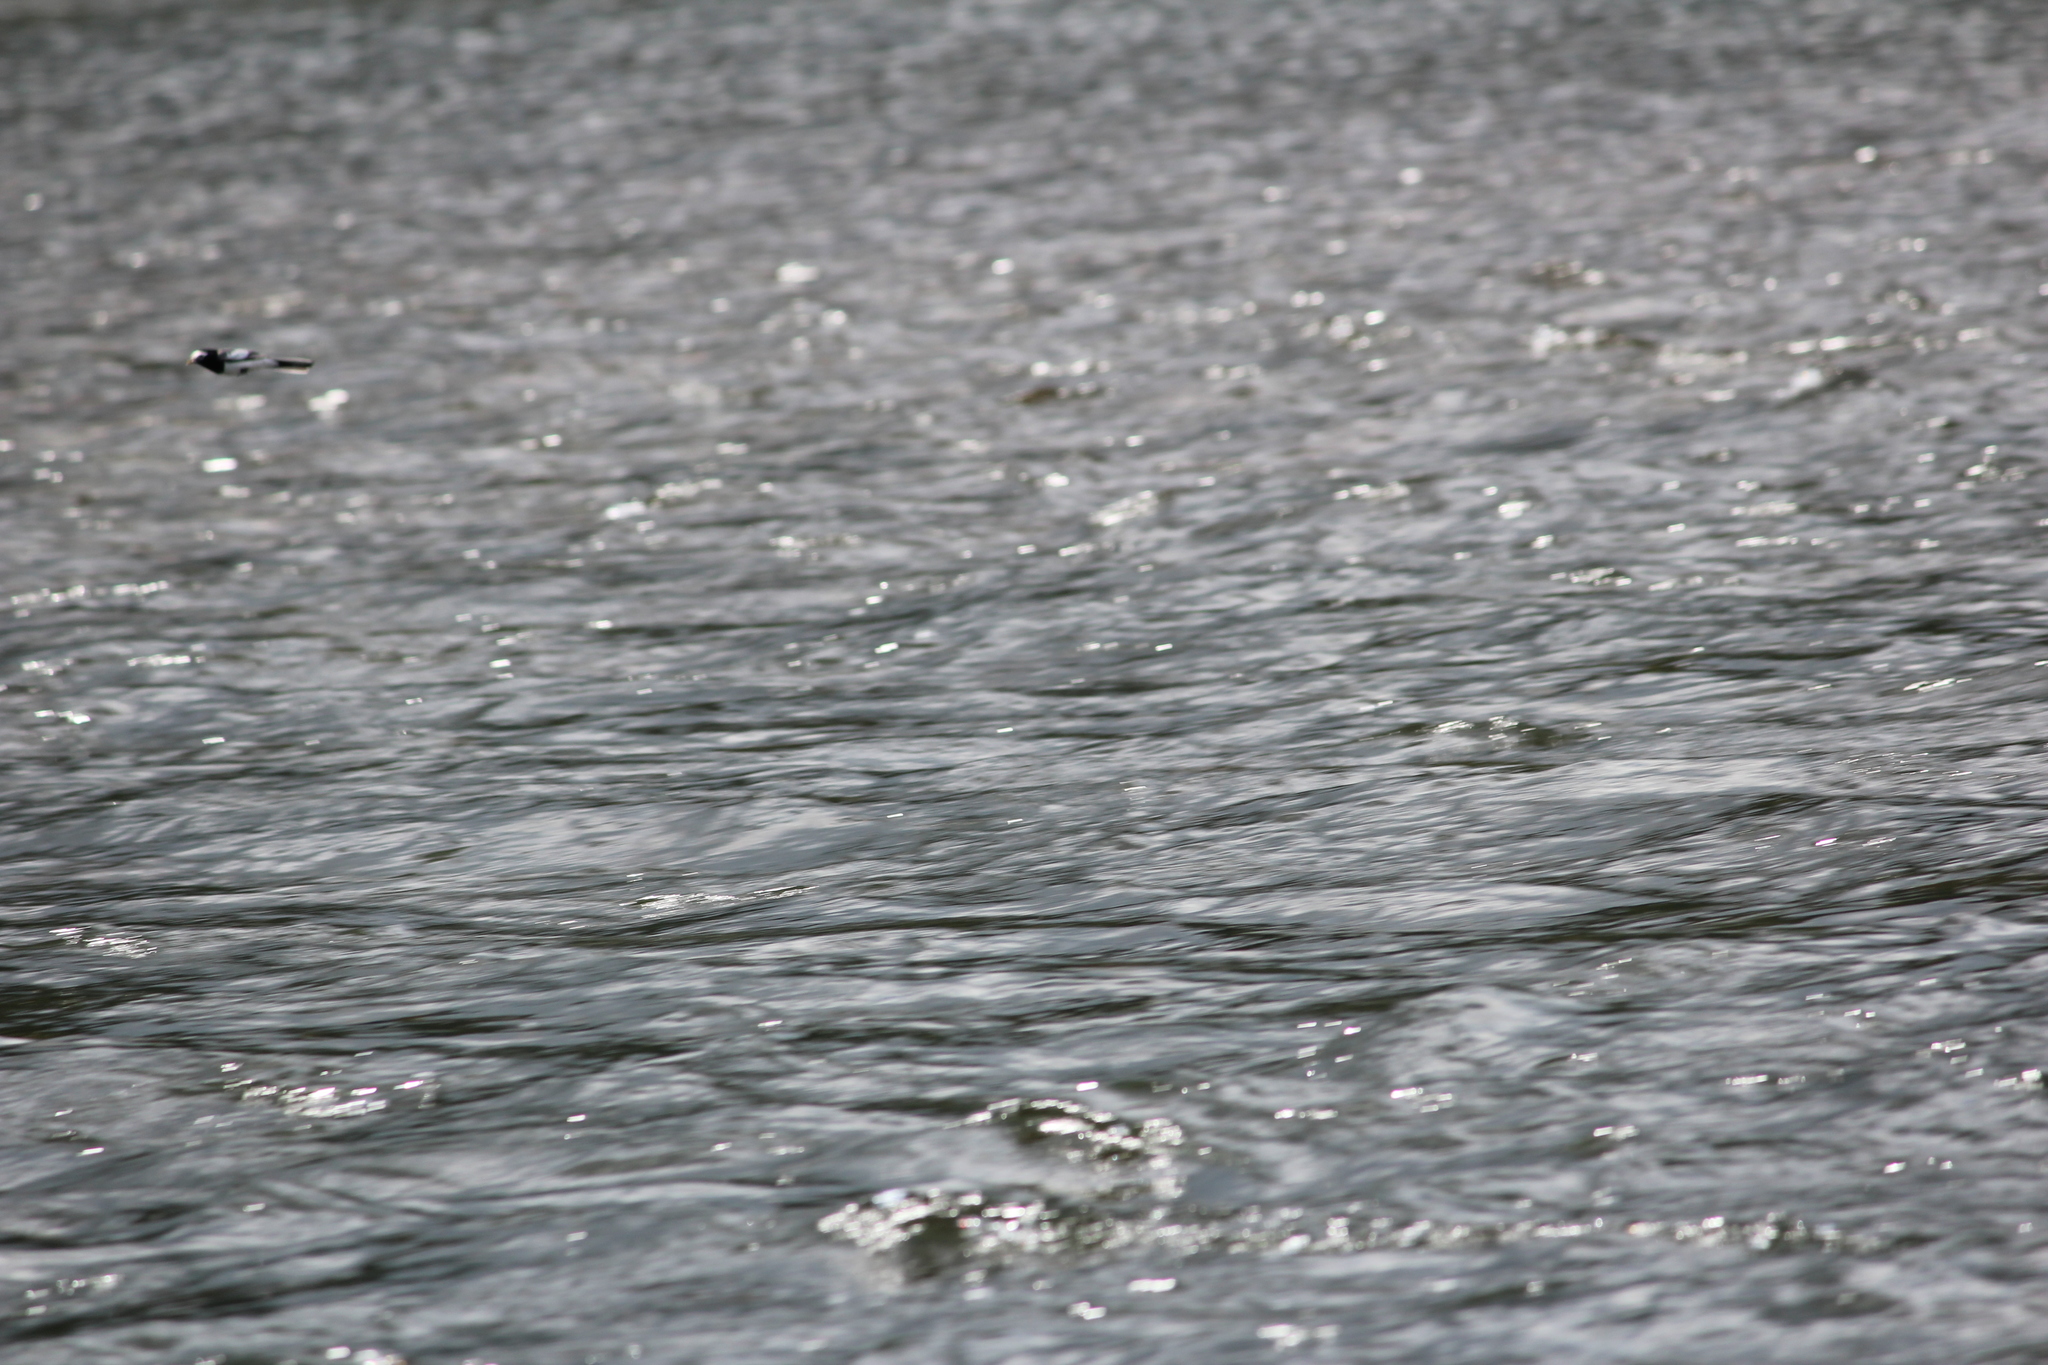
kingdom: Animalia
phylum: Chordata
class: Aves
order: Passeriformes
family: Motacillidae
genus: Motacilla
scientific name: Motacilla alba
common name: White wagtail
